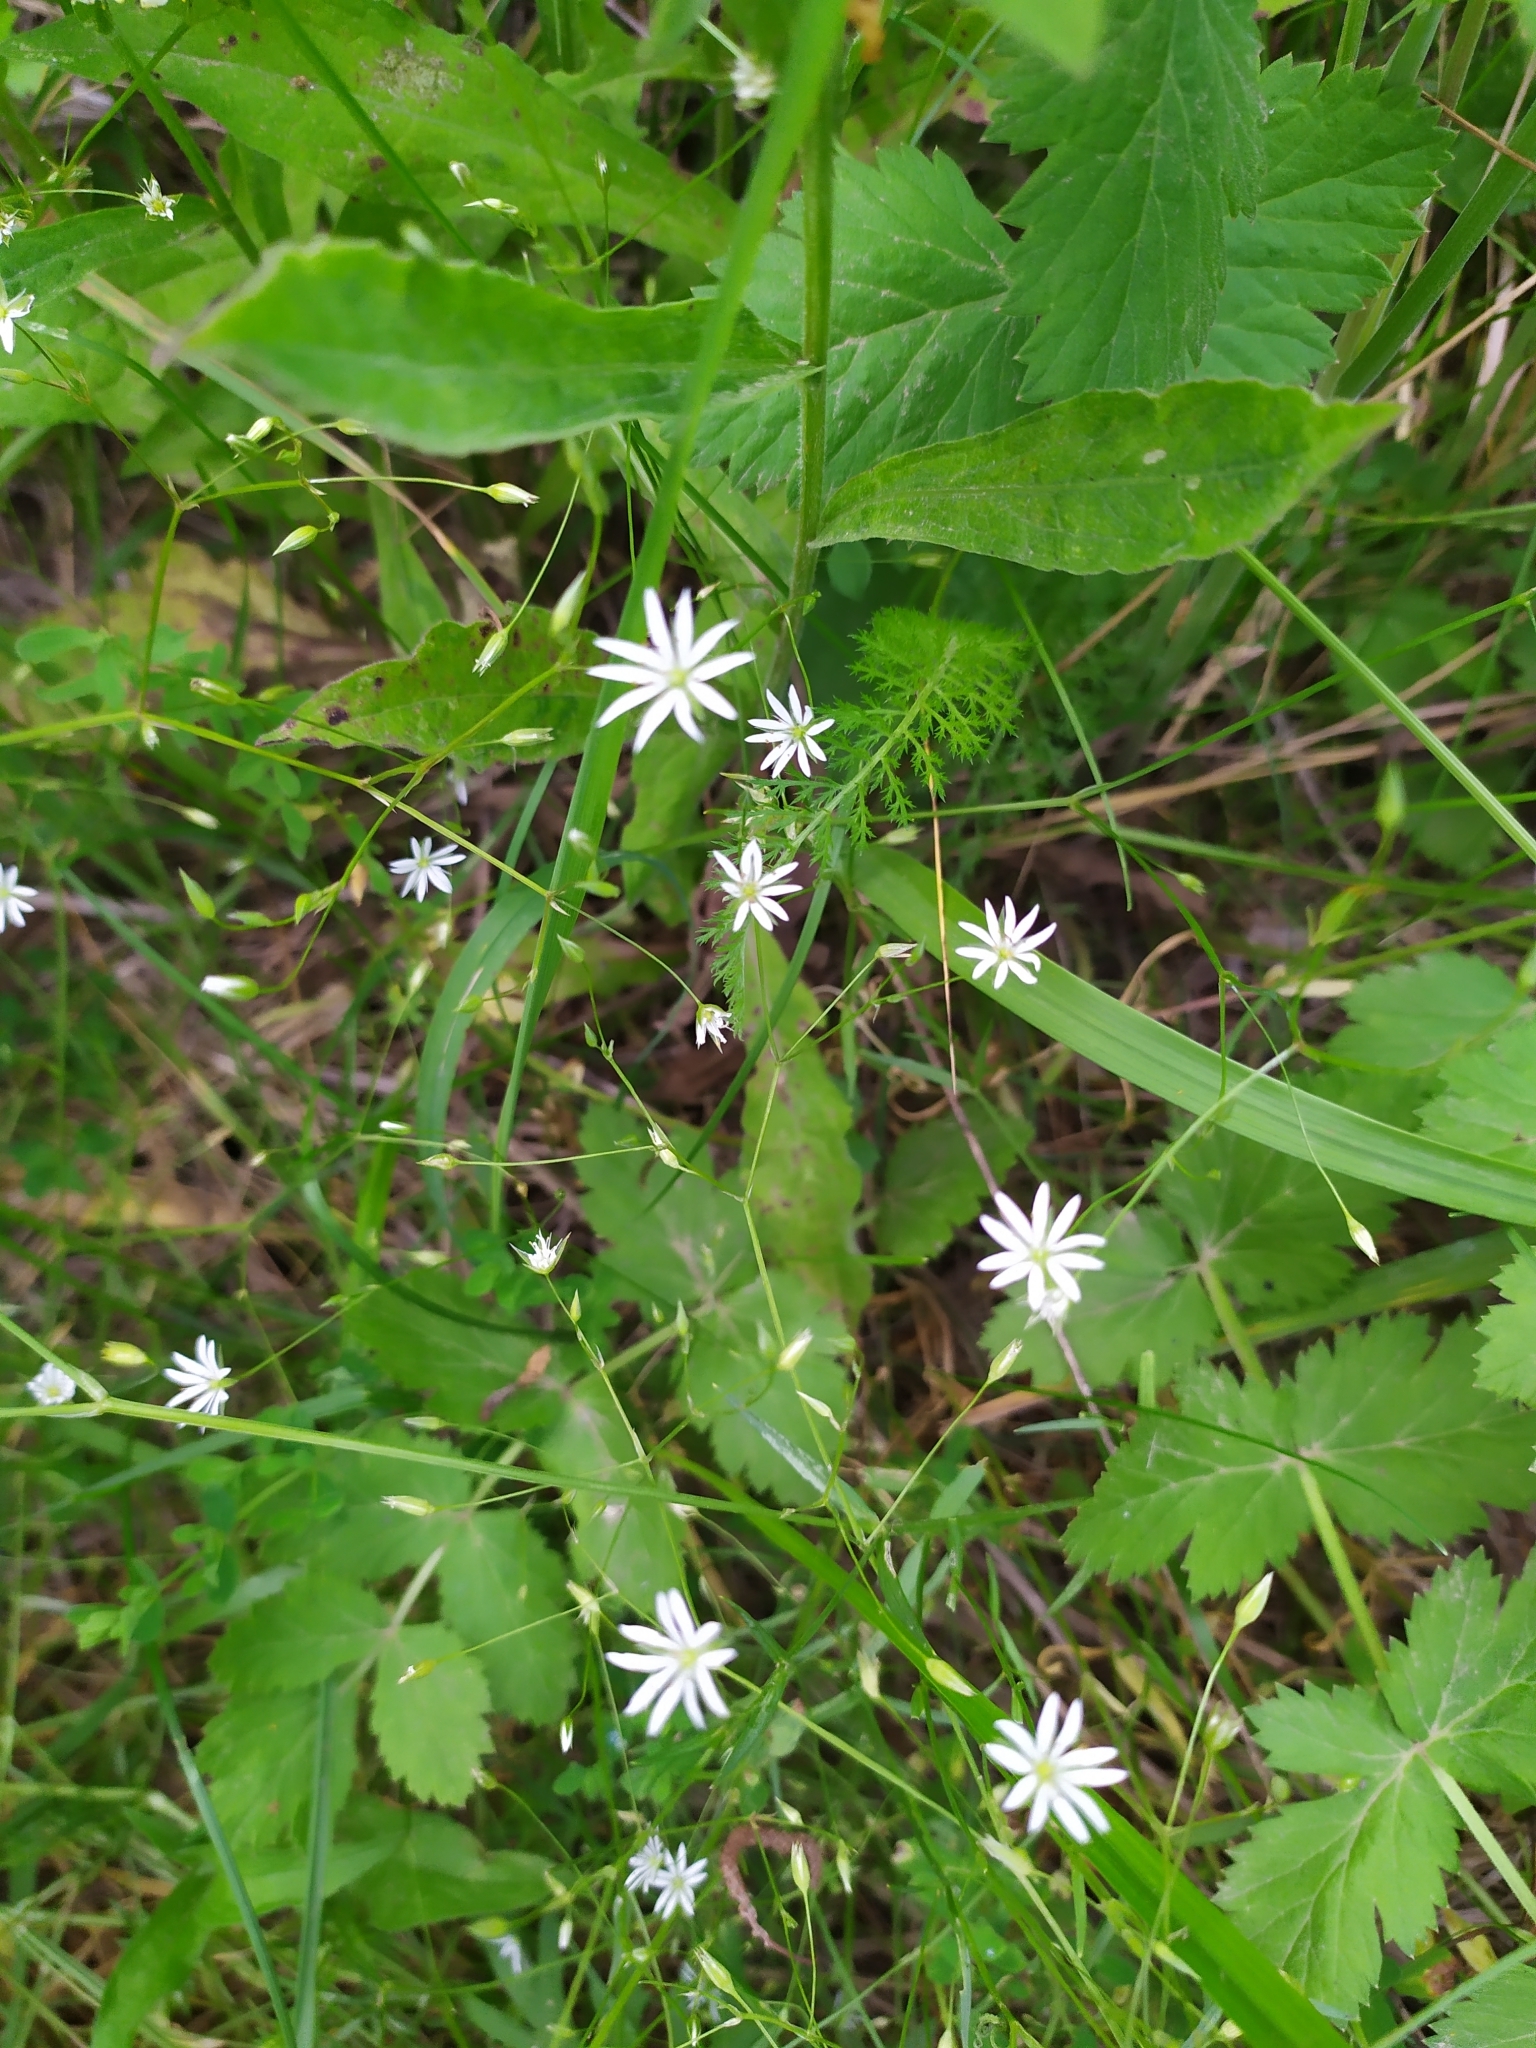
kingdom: Plantae
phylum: Tracheophyta
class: Magnoliopsida
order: Caryophyllales
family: Caryophyllaceae
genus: Stellaria
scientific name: Stellaria graminea
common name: Grass-like starwort
